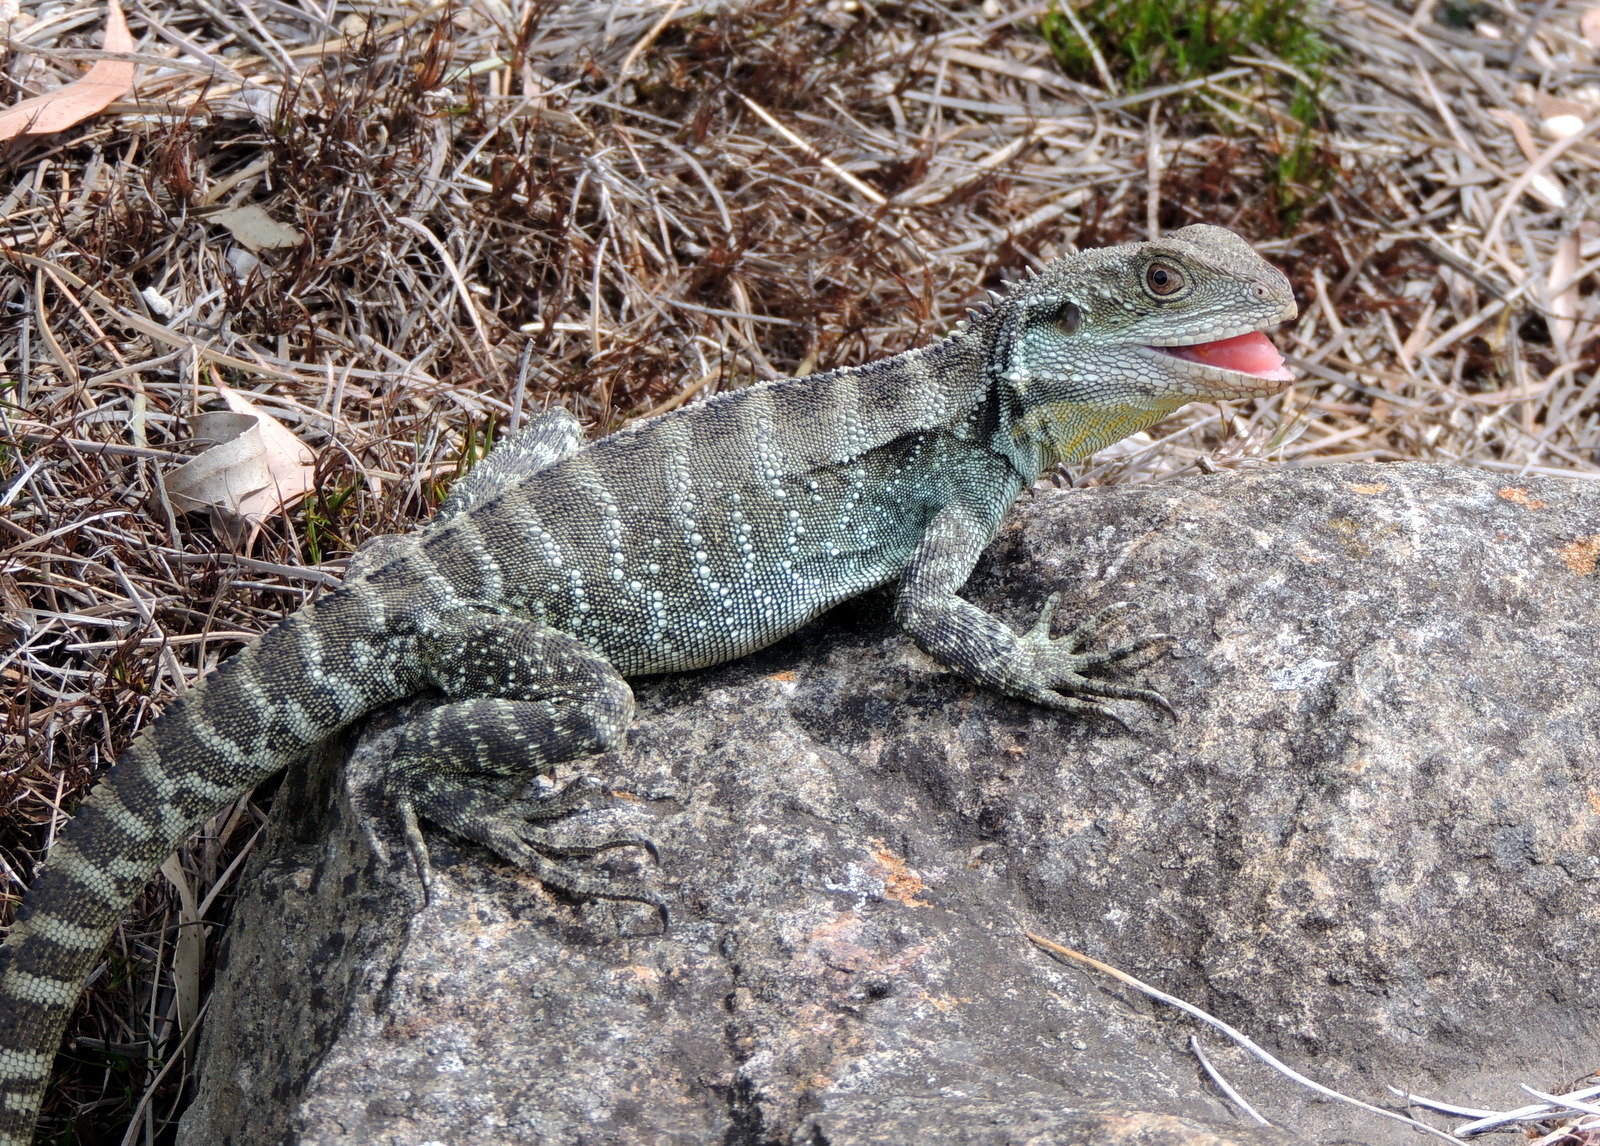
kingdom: Animalia
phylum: Chordata
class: Squamata
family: Agamidae
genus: Intellagama
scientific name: Intellagama lesueurii
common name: Eastern water dragon
